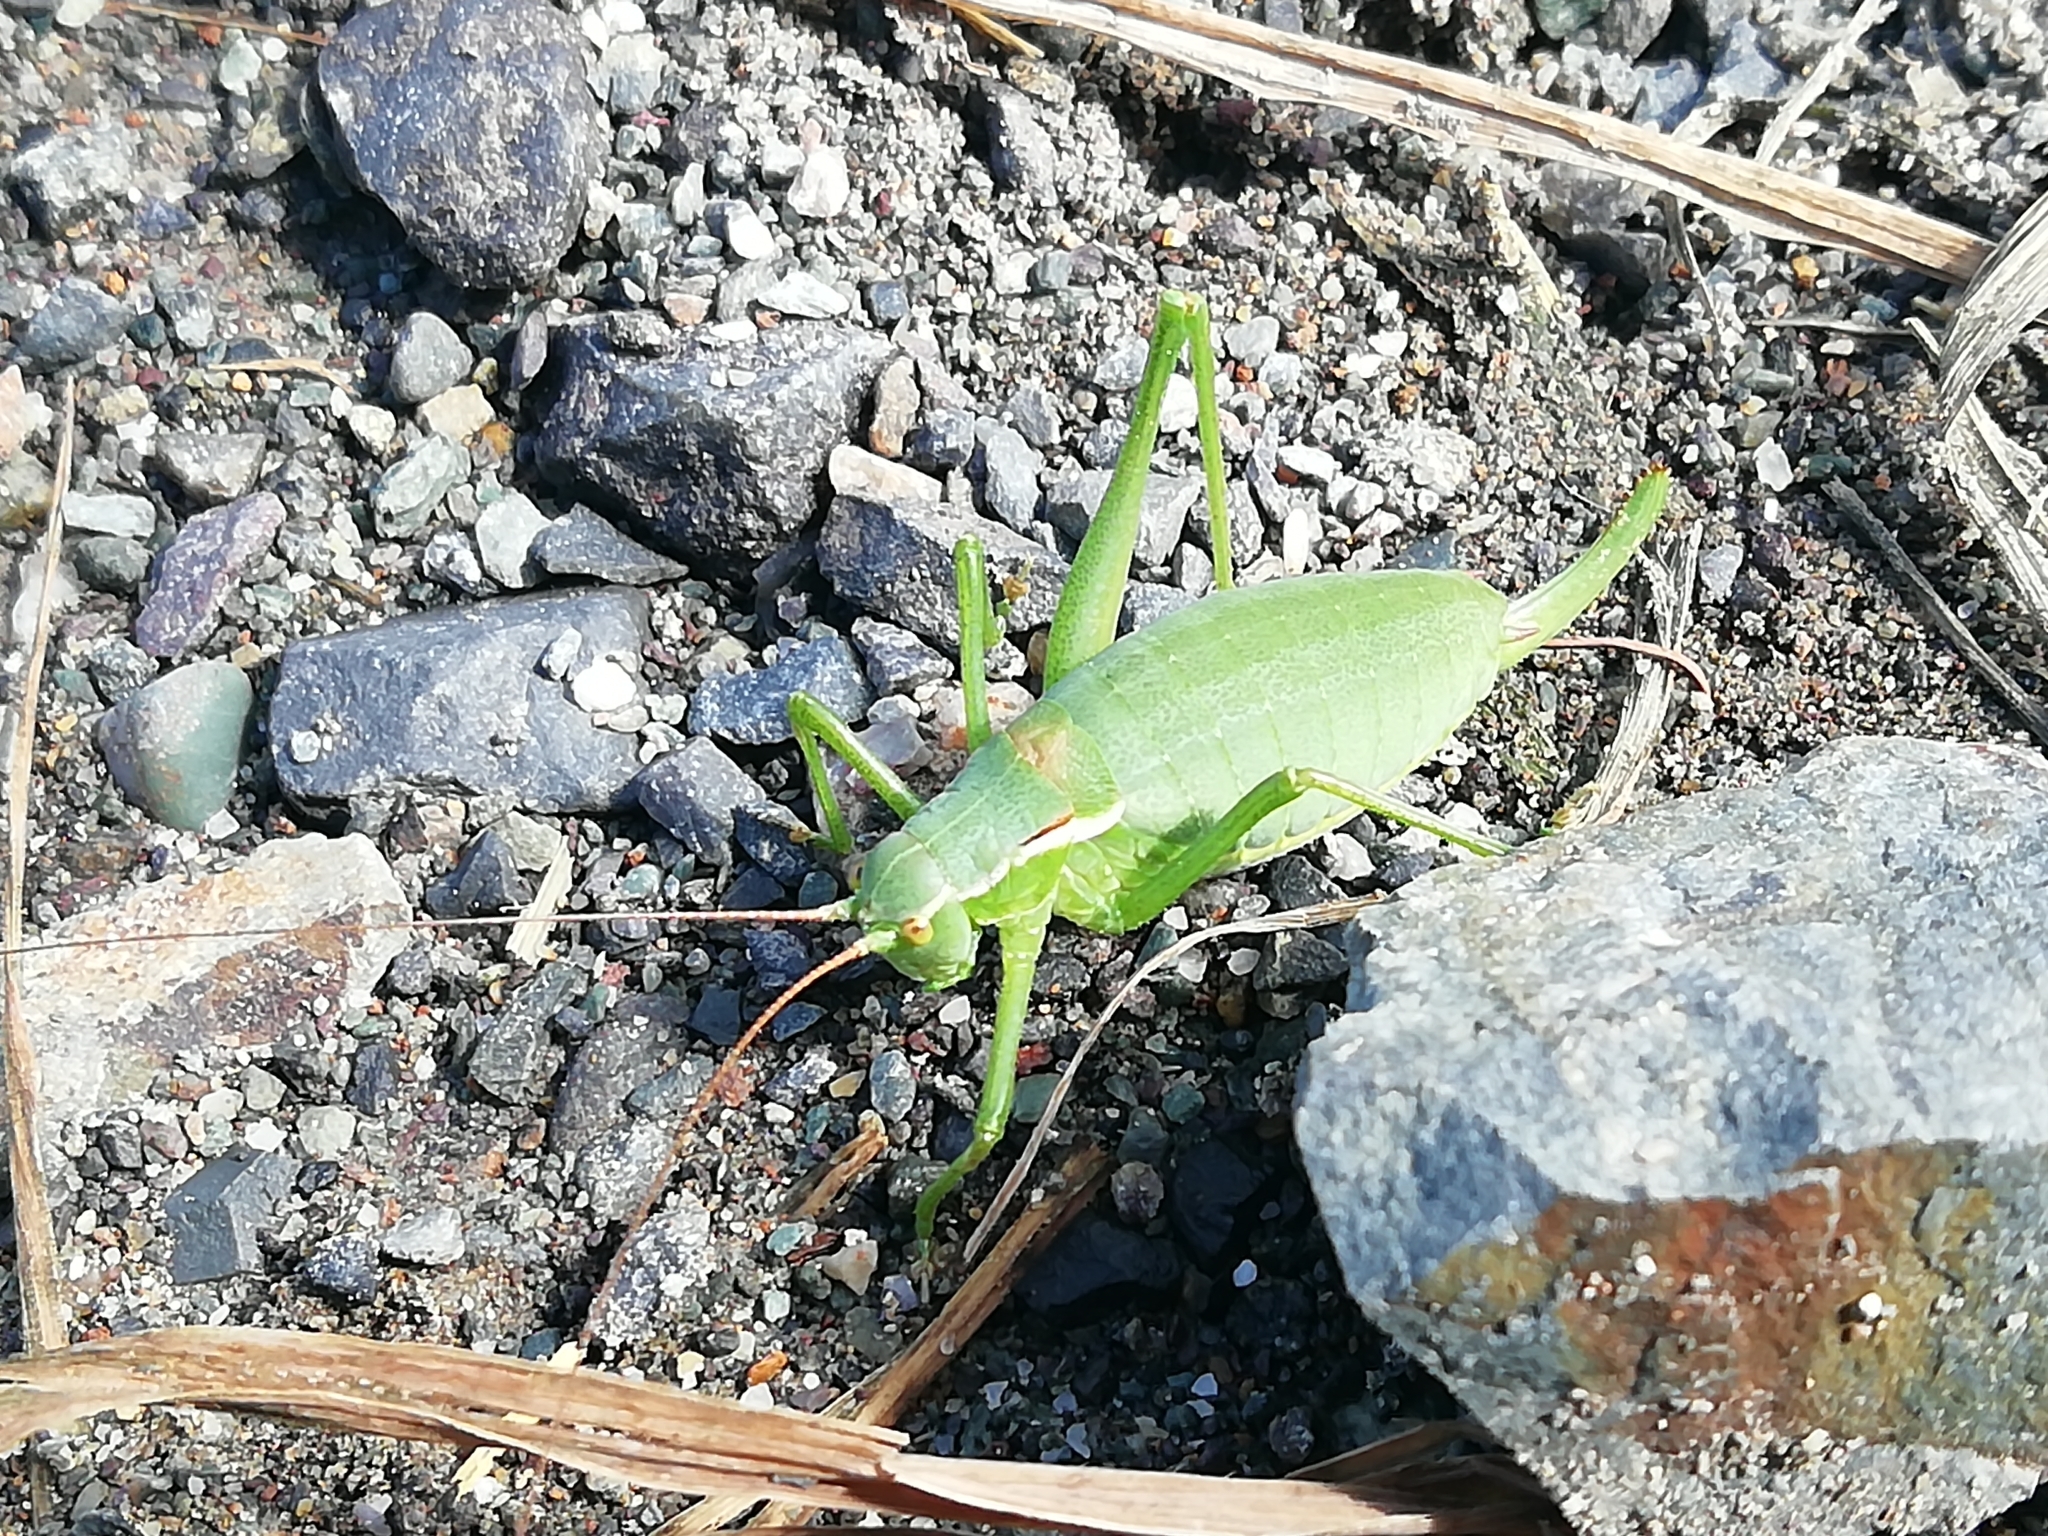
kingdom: Animalia
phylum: Arthropoda
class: Insecta
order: Orthoptera
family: Tettigoniidae
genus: Isophya
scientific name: Isophya altaica
